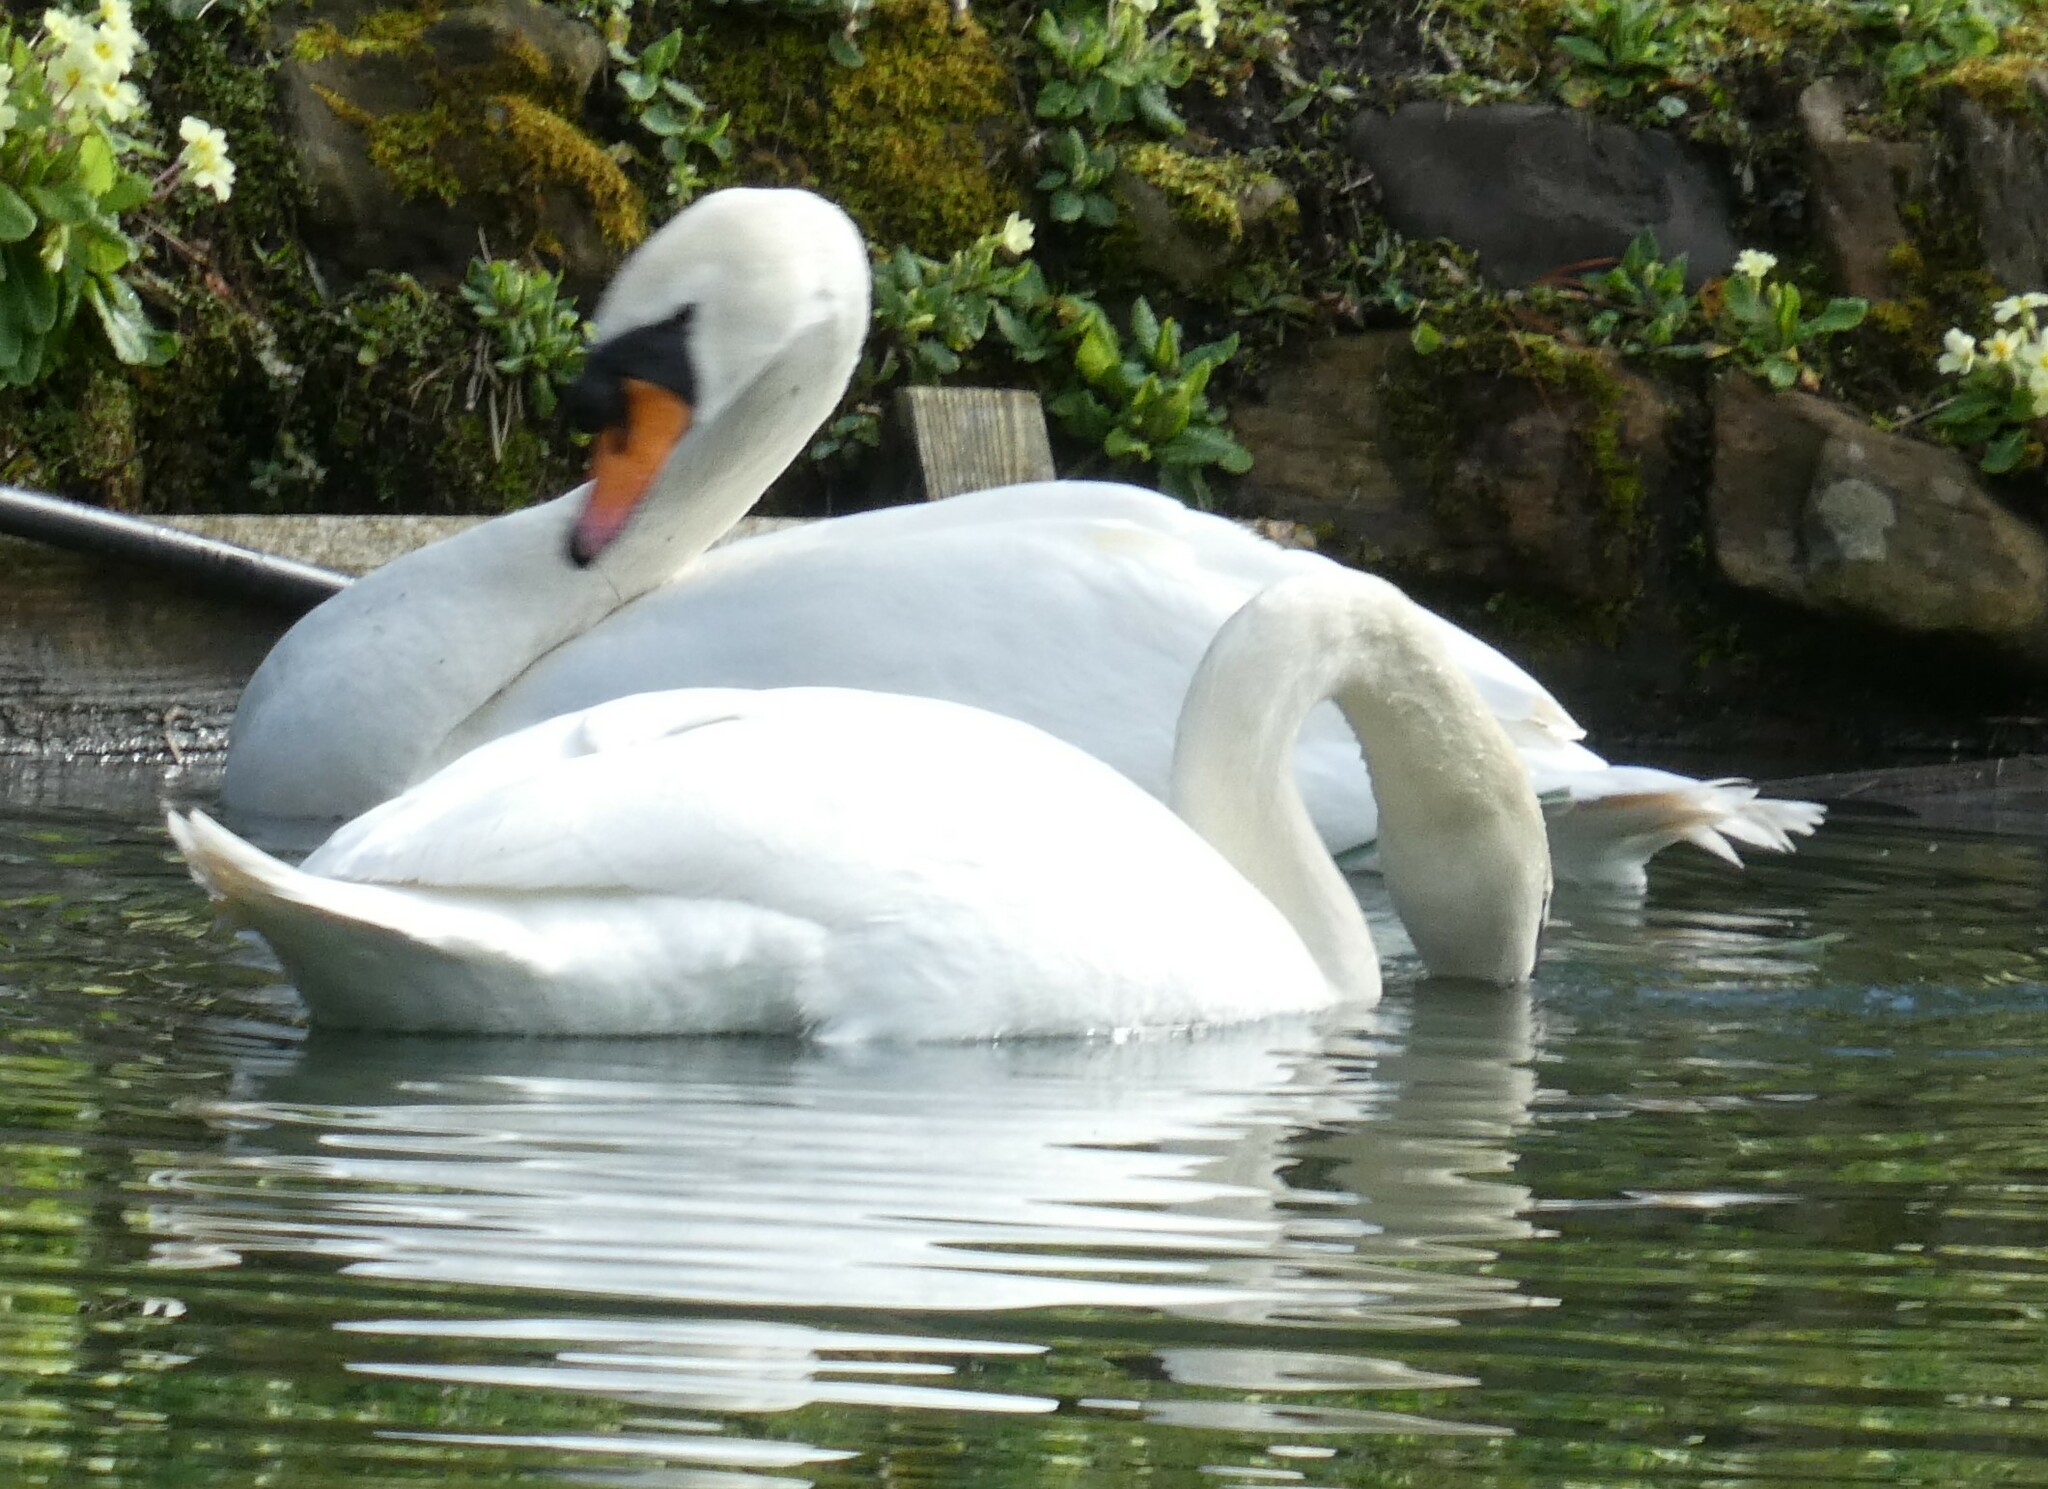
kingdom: Animalia
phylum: Chordata
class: Aves
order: Anseriformes
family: Anatidae
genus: Cygnus
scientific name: Cygnus olor
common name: Mute swan
